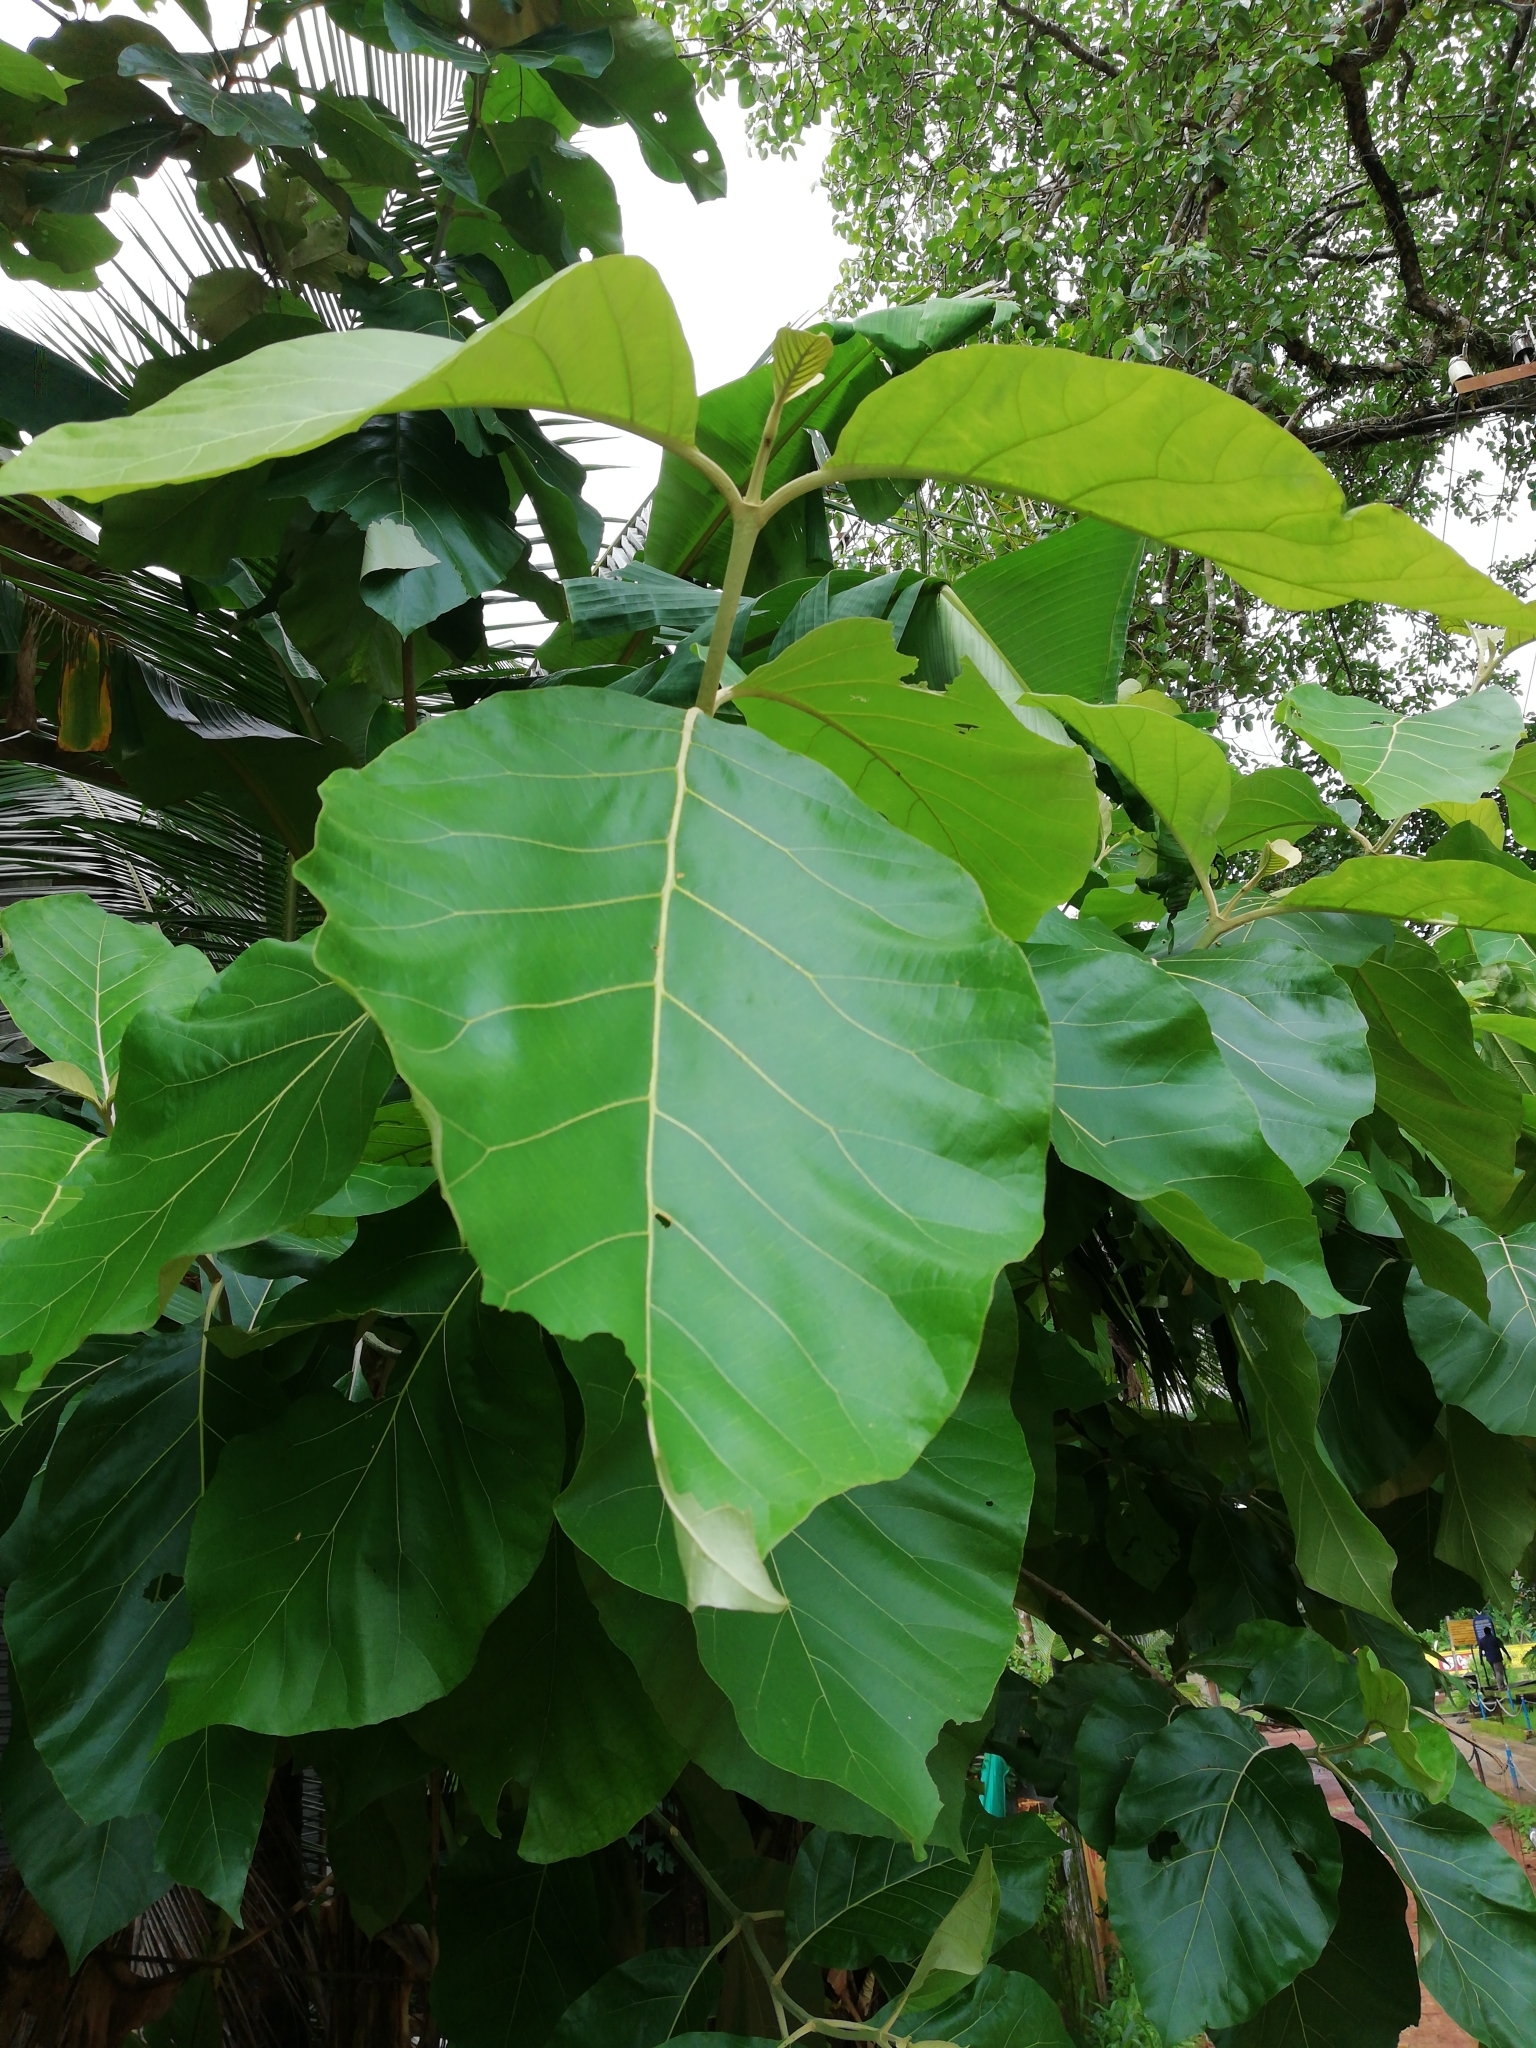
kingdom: Plantae
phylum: Tracheophyta
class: Magnoliopsida
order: Lamiales
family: Lamiaceae
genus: Tectona
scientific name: Tectona grandis
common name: Teak
